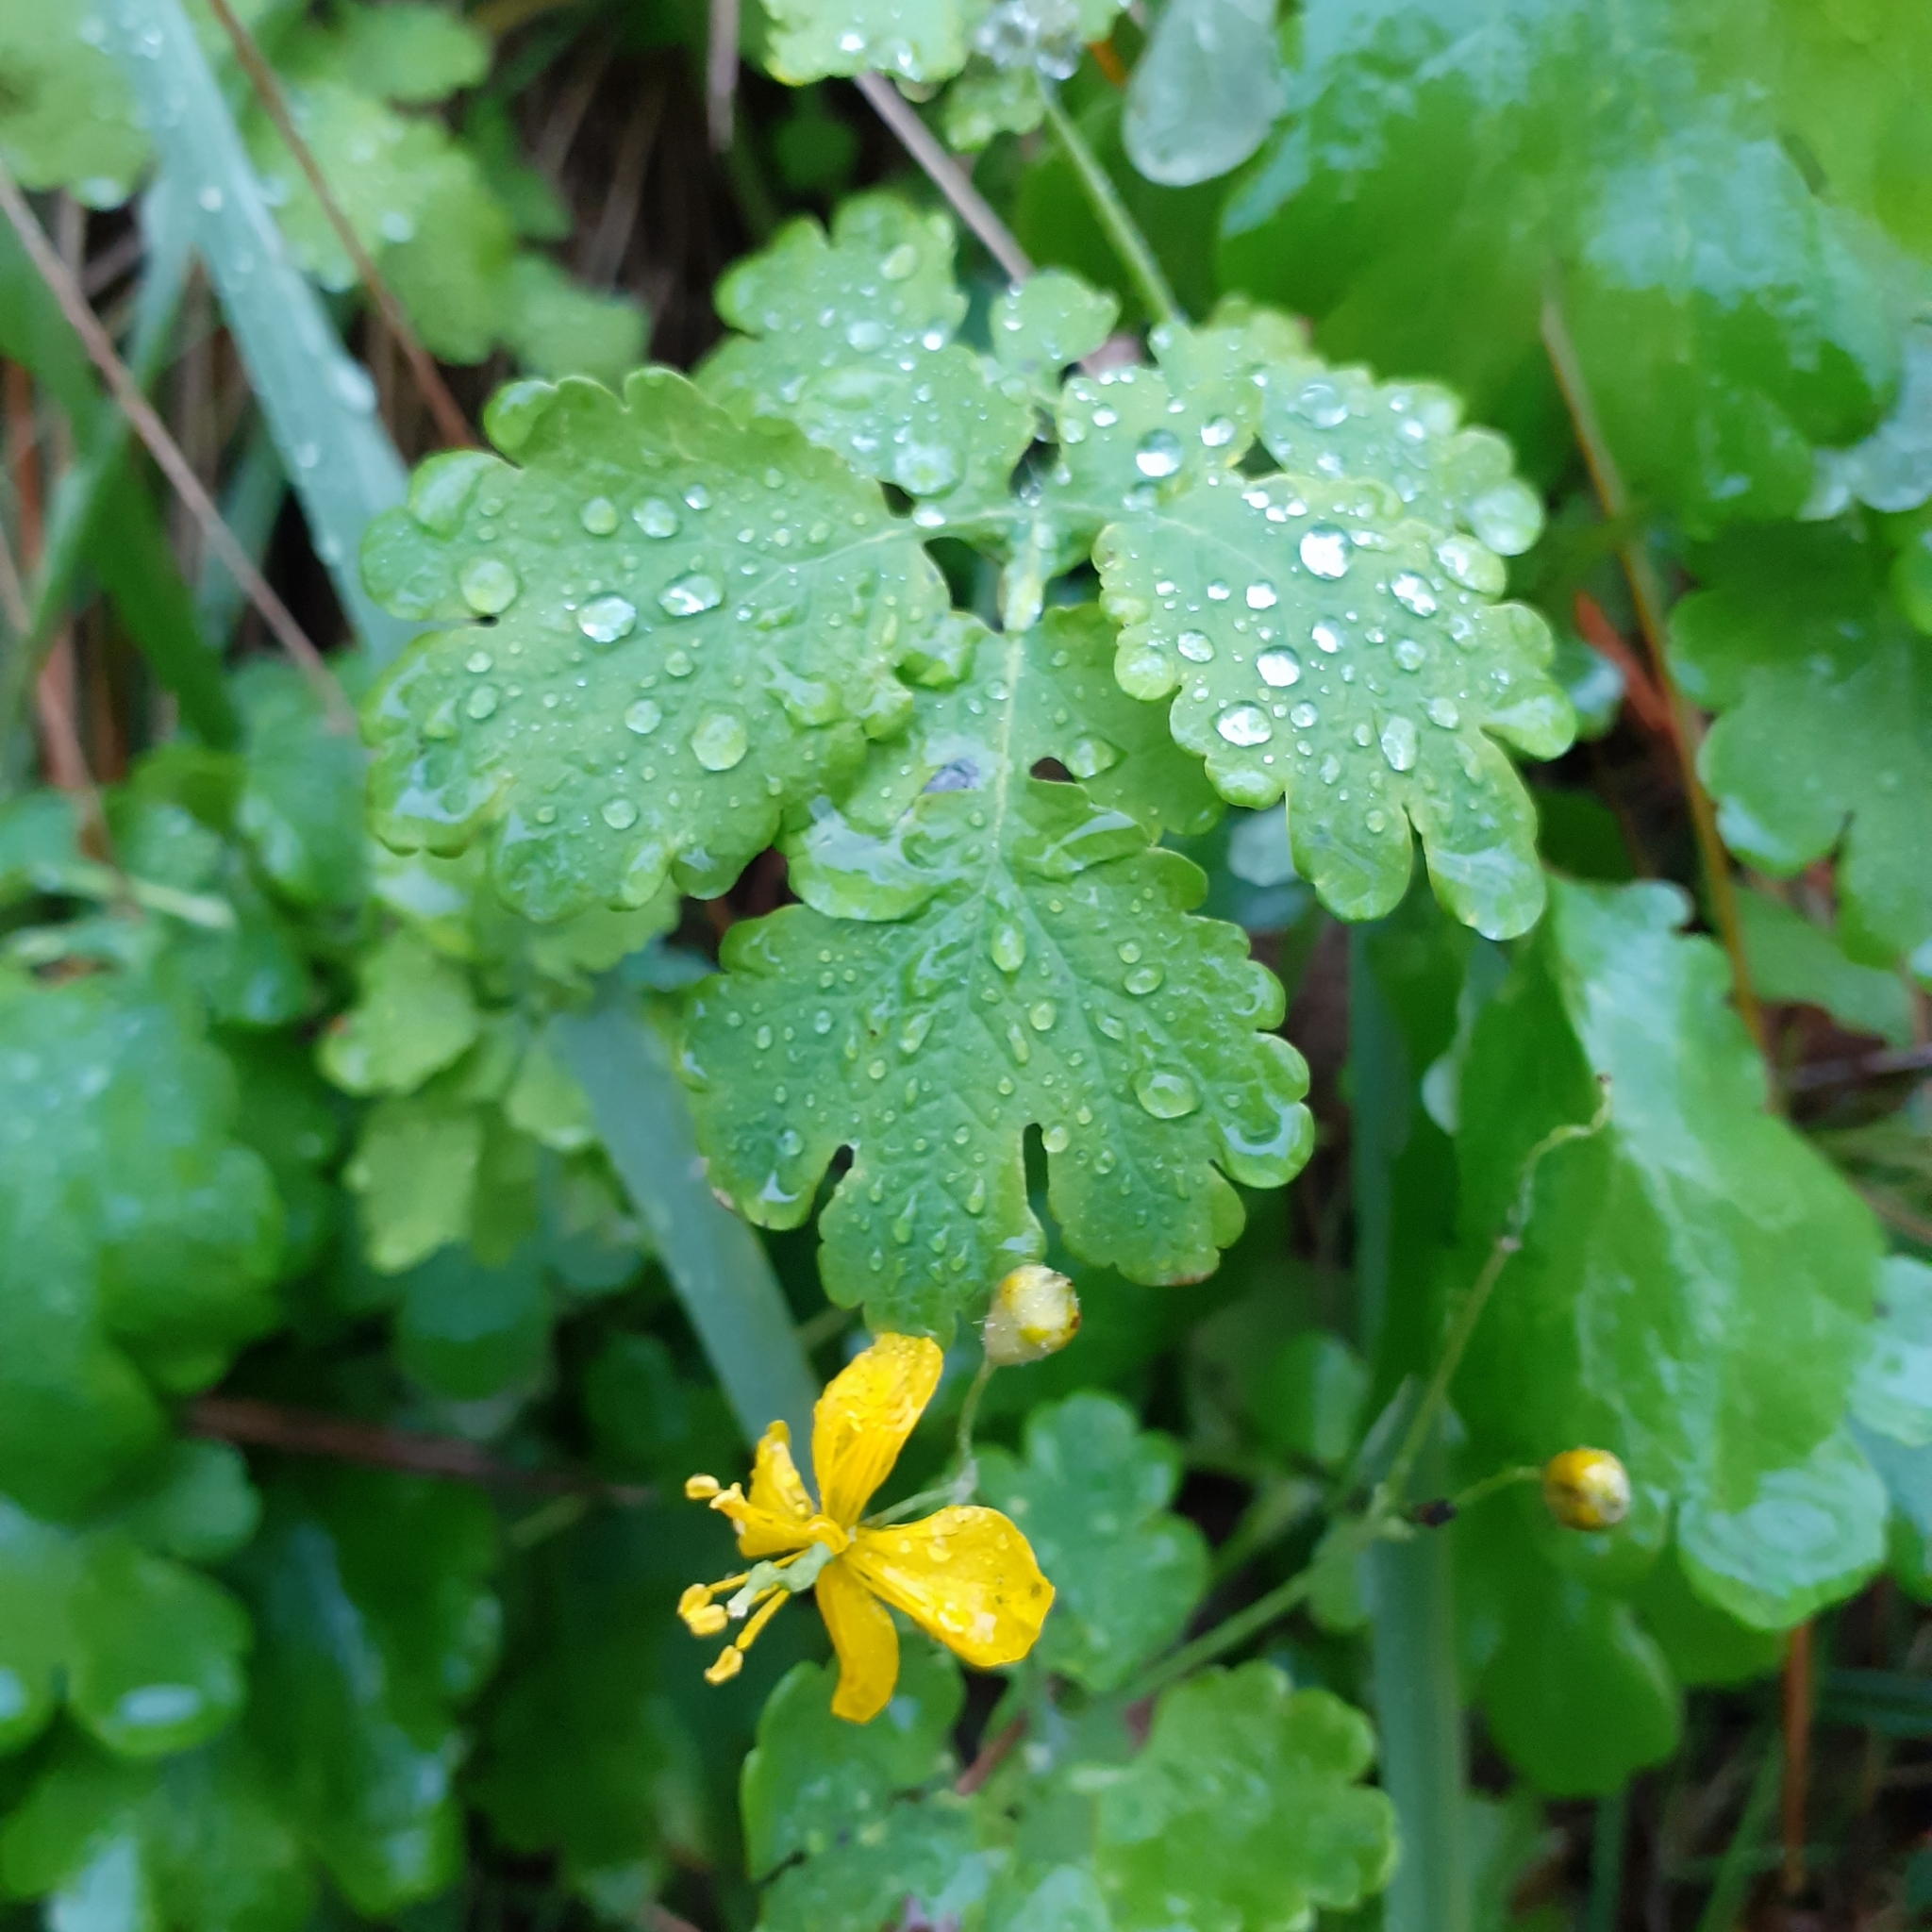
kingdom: Plantae
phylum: Tracheophyta
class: Magnoliopsida
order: Ranunculales
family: Papaveraceae
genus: Chelidonium
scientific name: Chelidonium majus
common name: Greater celandine
